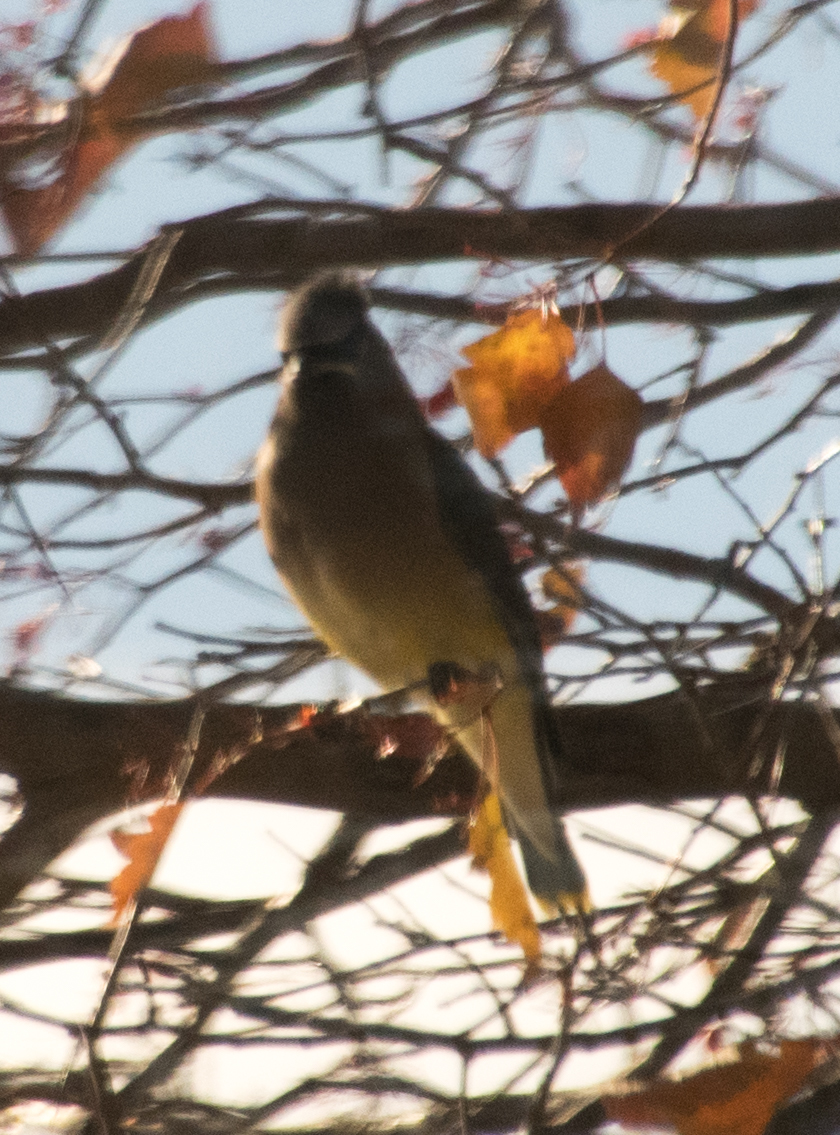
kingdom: Animalia
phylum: Chordata
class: Aves
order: Passeriformes
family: Bombycillidae
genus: Bombycilla
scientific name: Bombycilla cedrorum
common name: Cedar waxwing
